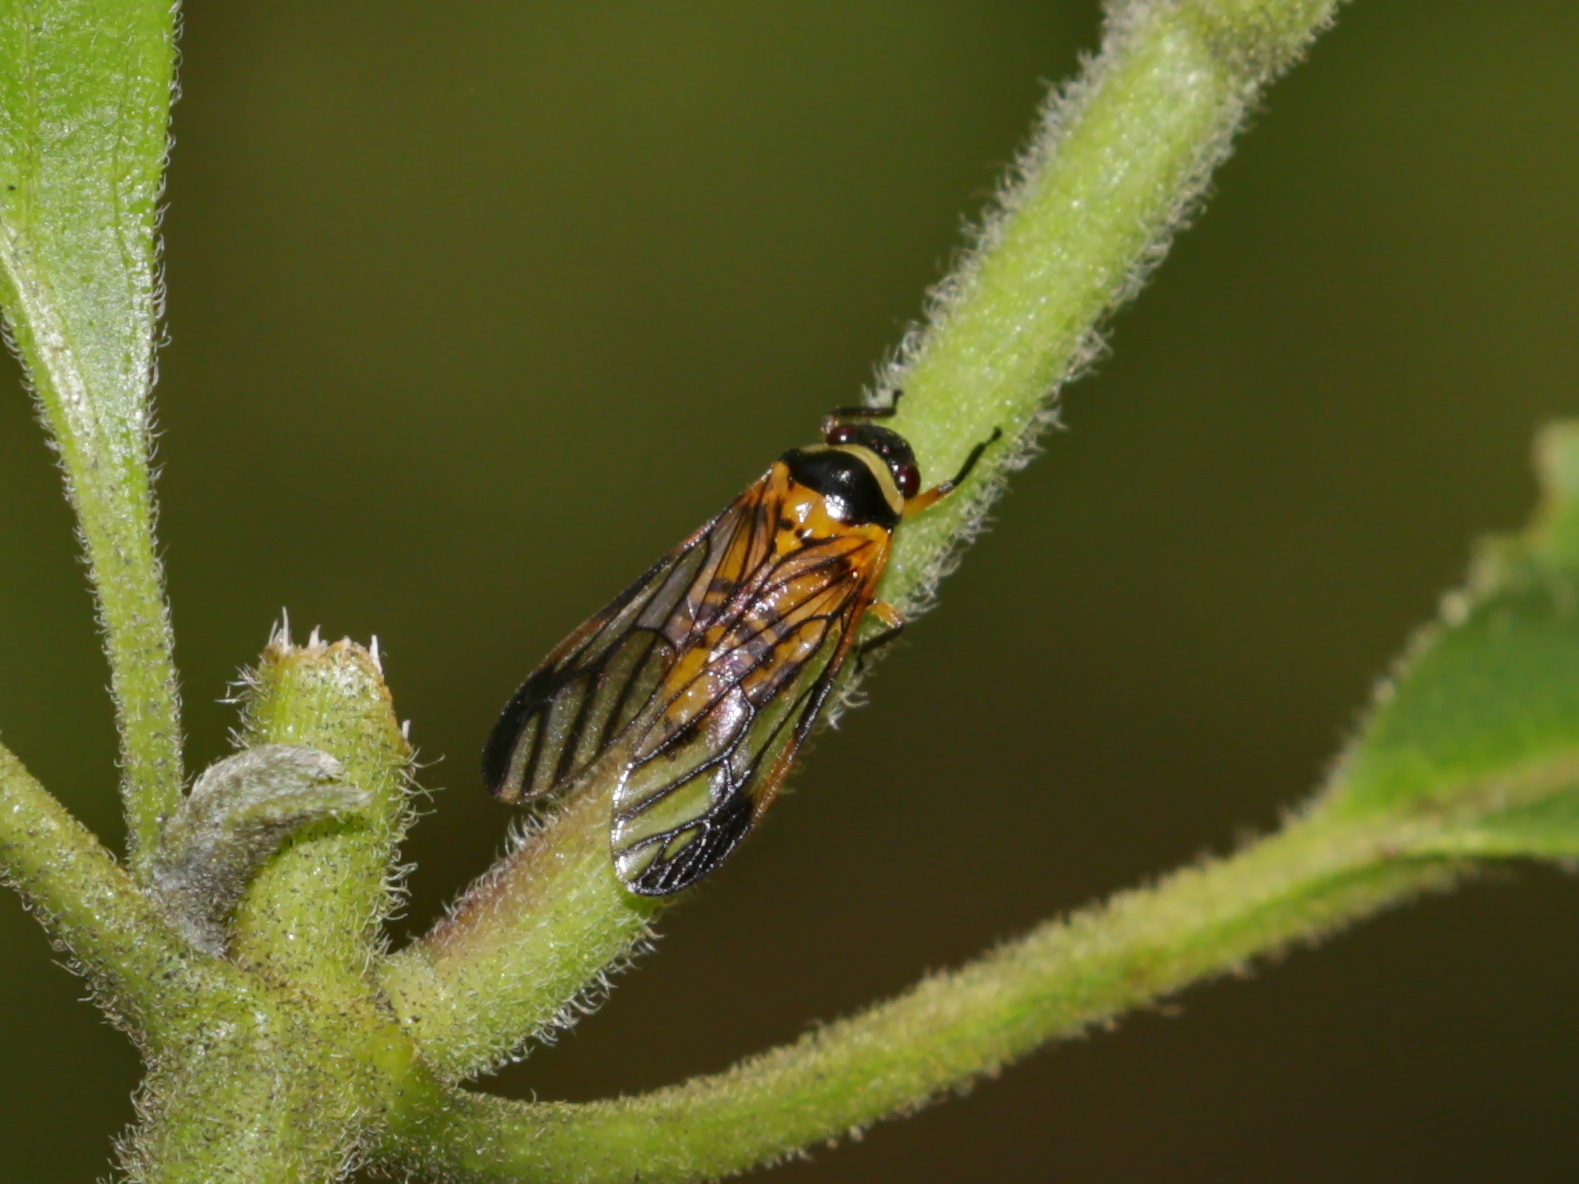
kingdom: Animalia
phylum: Arthropoda
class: Insecta
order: Hemiptera
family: Cercopidae
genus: Colsa
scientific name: Colsa costaestriga
